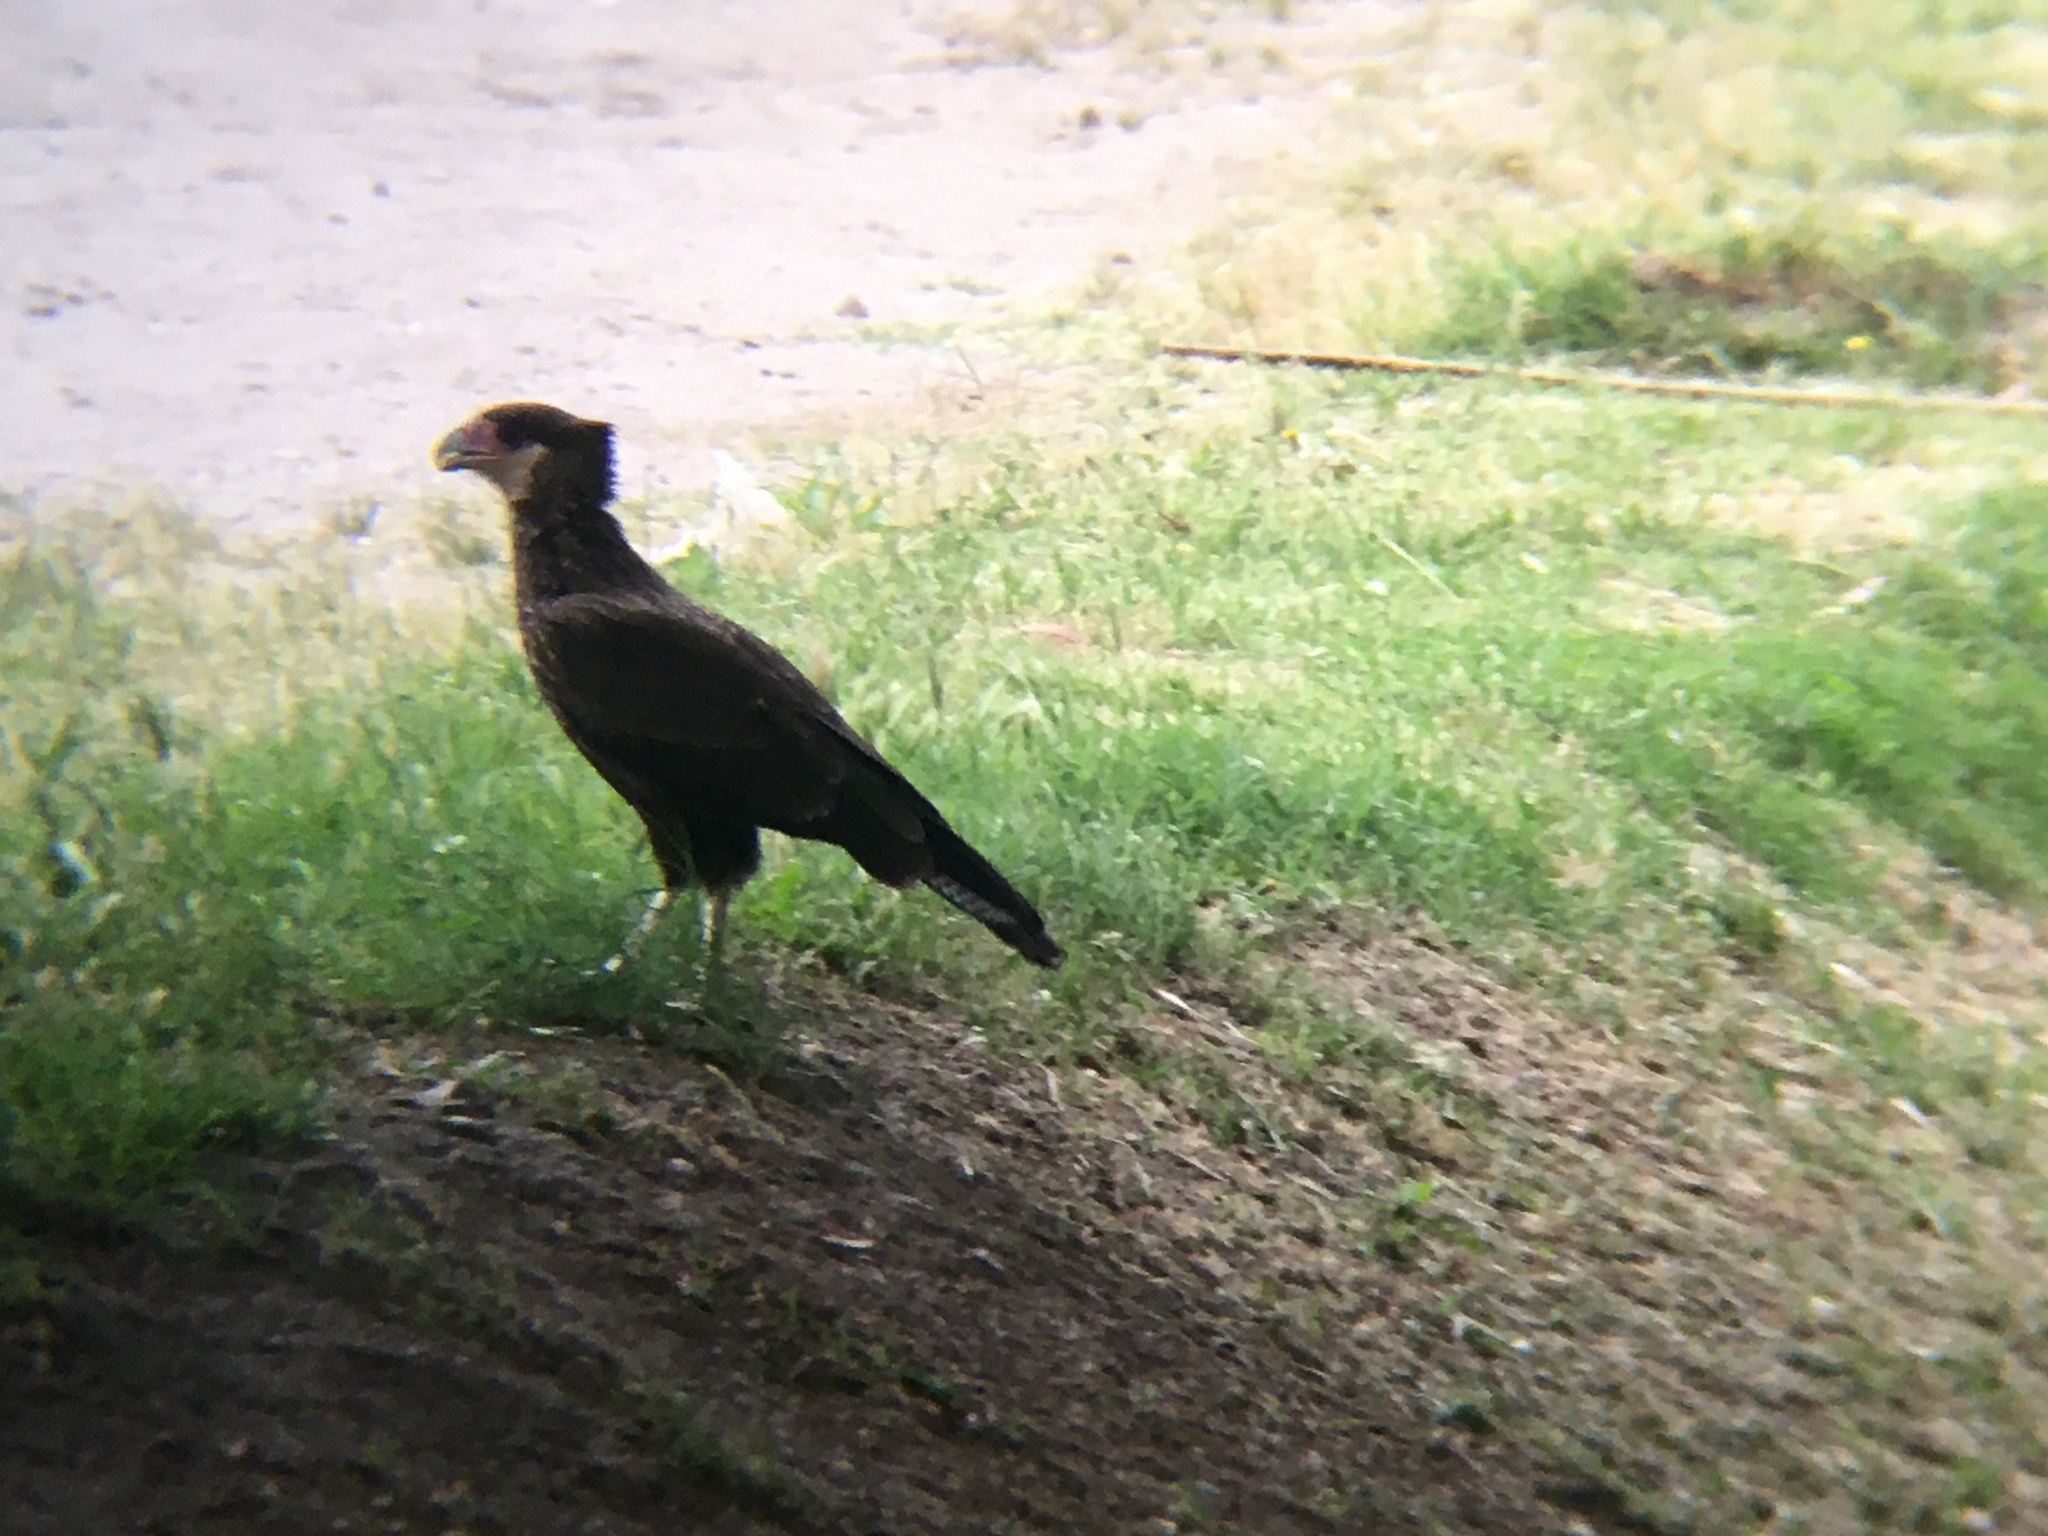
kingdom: Animalia
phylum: Chordata
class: Aves
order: Falconiformes
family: Falconidae
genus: Caracara
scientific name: Caracara plancus
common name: Southern caracara
